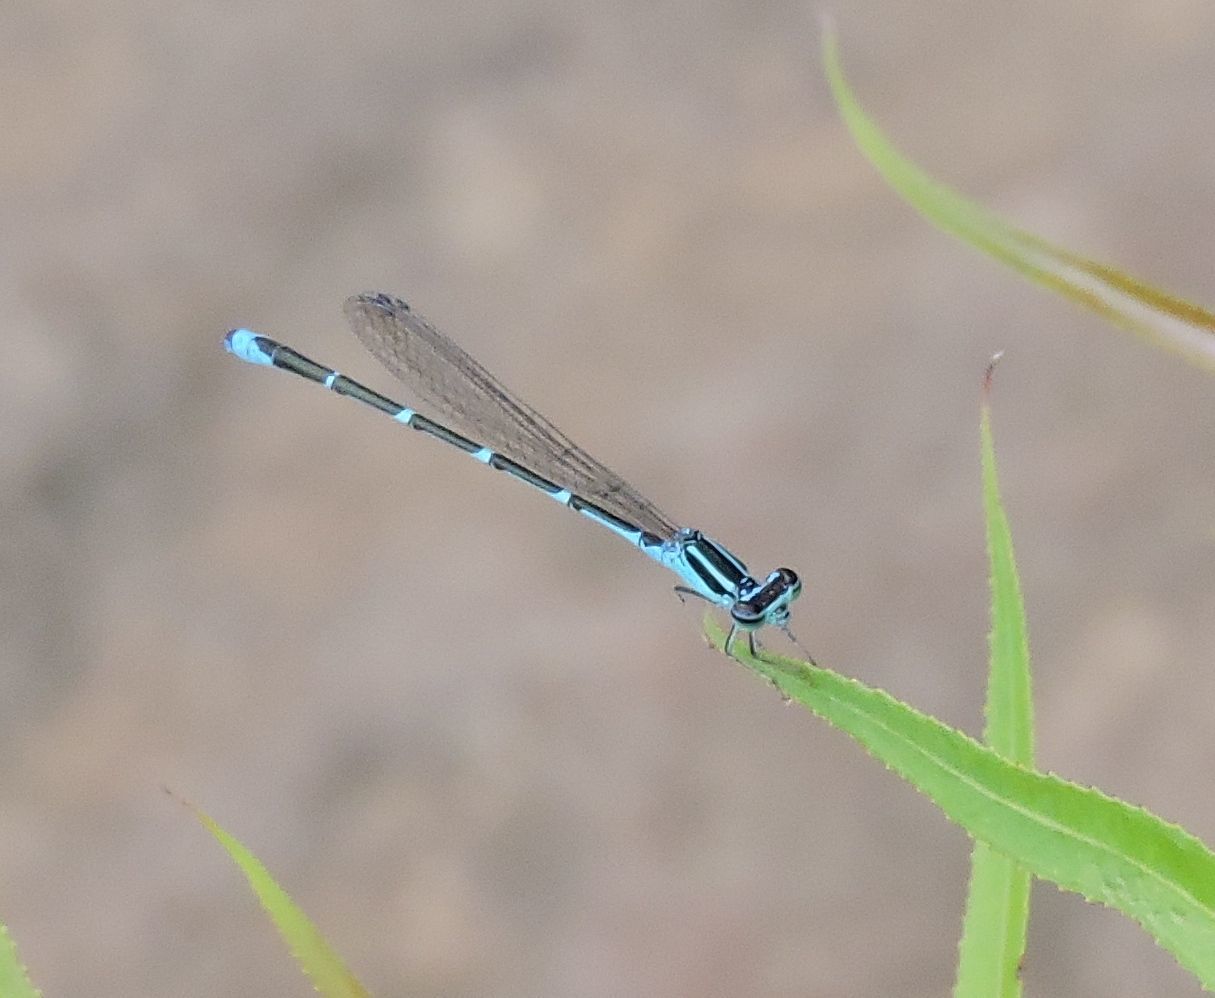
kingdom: Animalia
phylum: Arthropoda
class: Insecta
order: Odonata
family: Coenagrionidae
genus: Enallagma
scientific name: Enallagma exsulans
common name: Stream bluet
